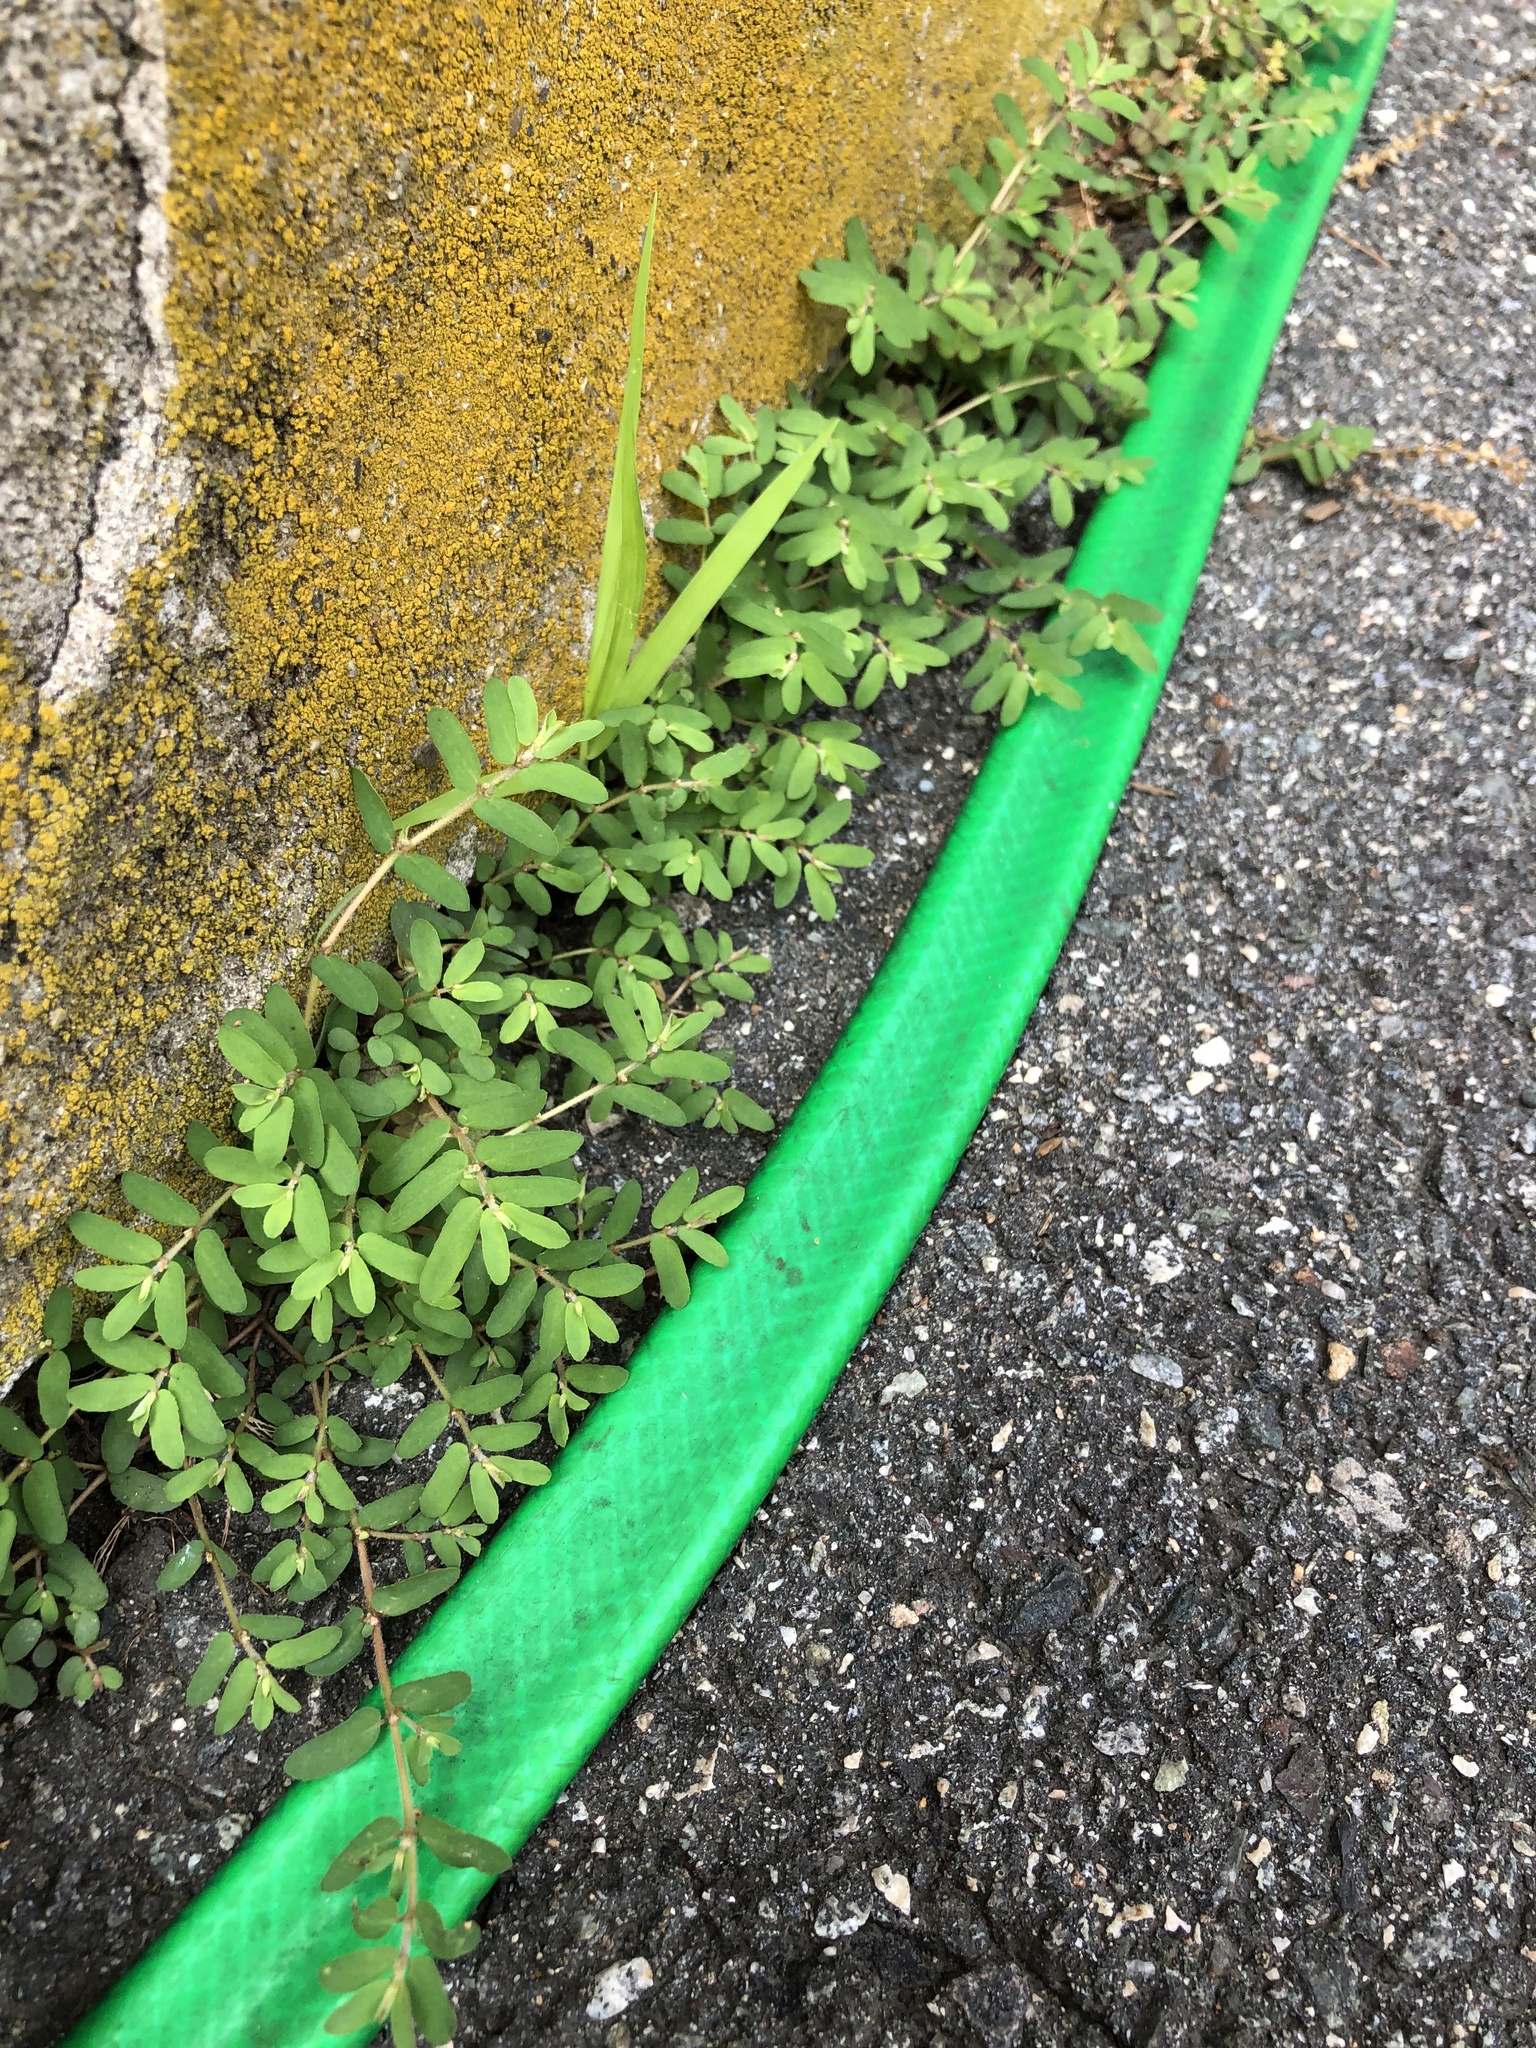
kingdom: Plantae
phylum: Tracheophyta
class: Magnoliopsida
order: Malpighiales
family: Euphorbiaceae
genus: Euphorbia
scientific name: Euphorbia maculata
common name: Spotted spurge
